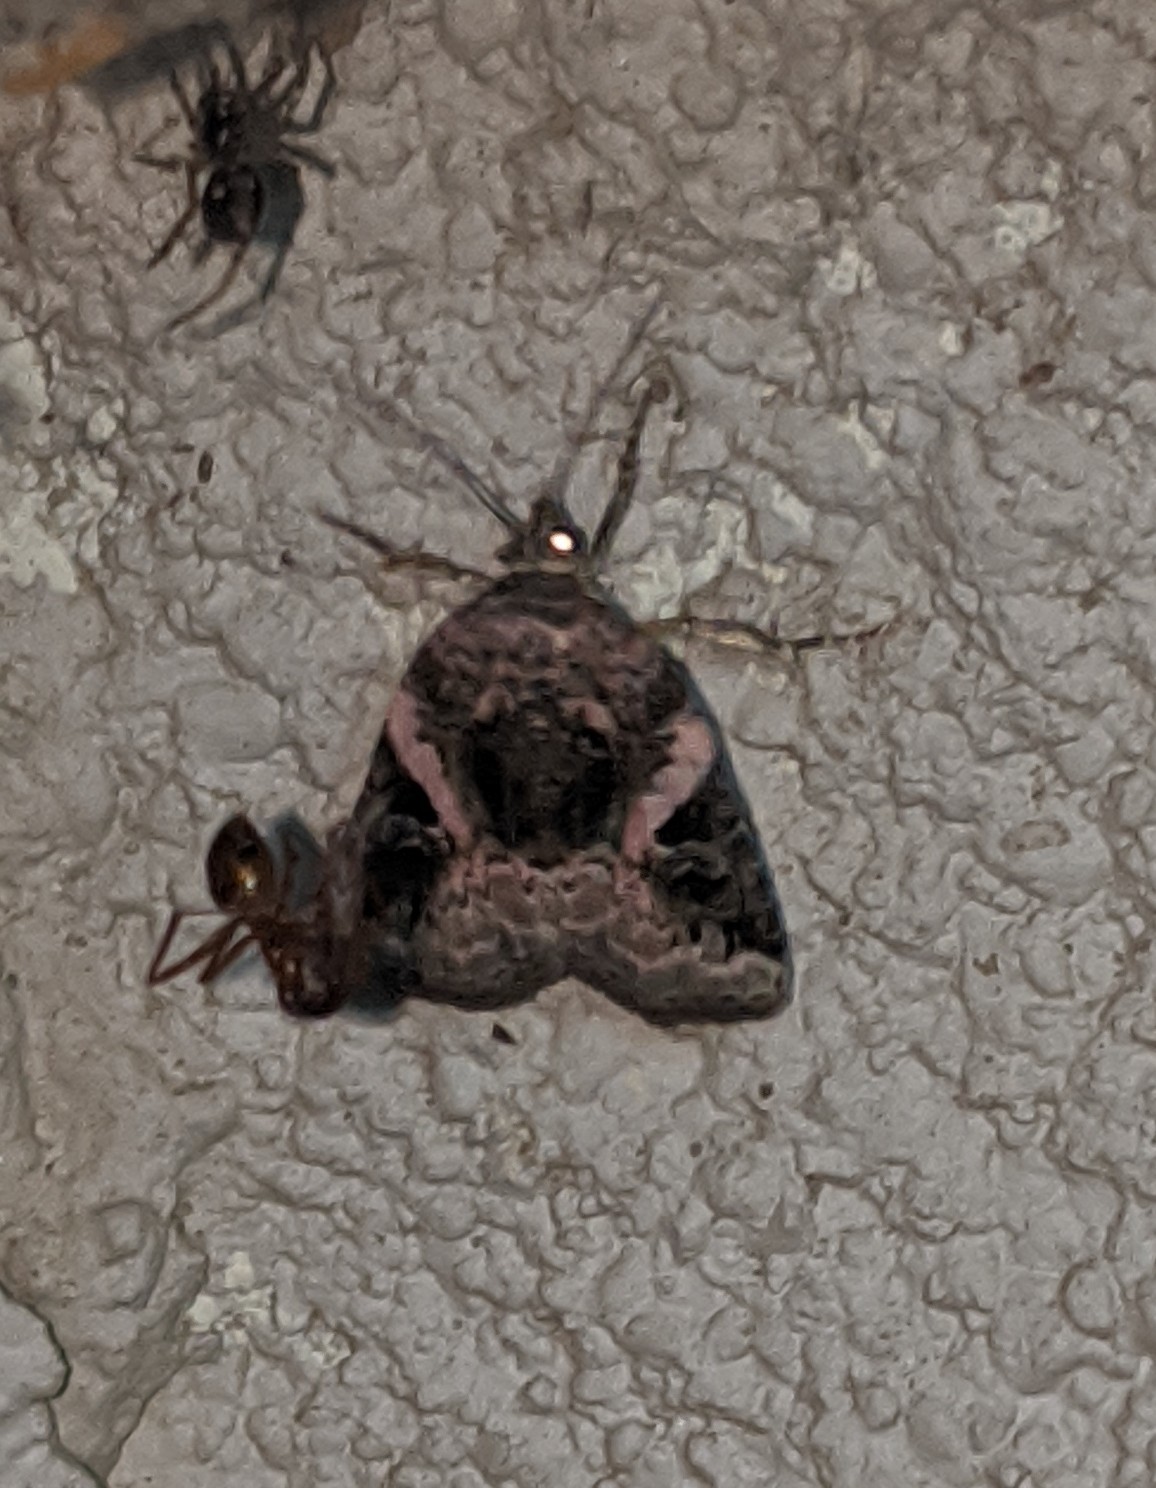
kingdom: Animalia
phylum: Arthropoda
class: Insecta
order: Lepidoptera
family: Noctuidae
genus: Pseudeustrotia
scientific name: Pseudeustrotia carneola
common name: Pink-barred lithacodia moth
